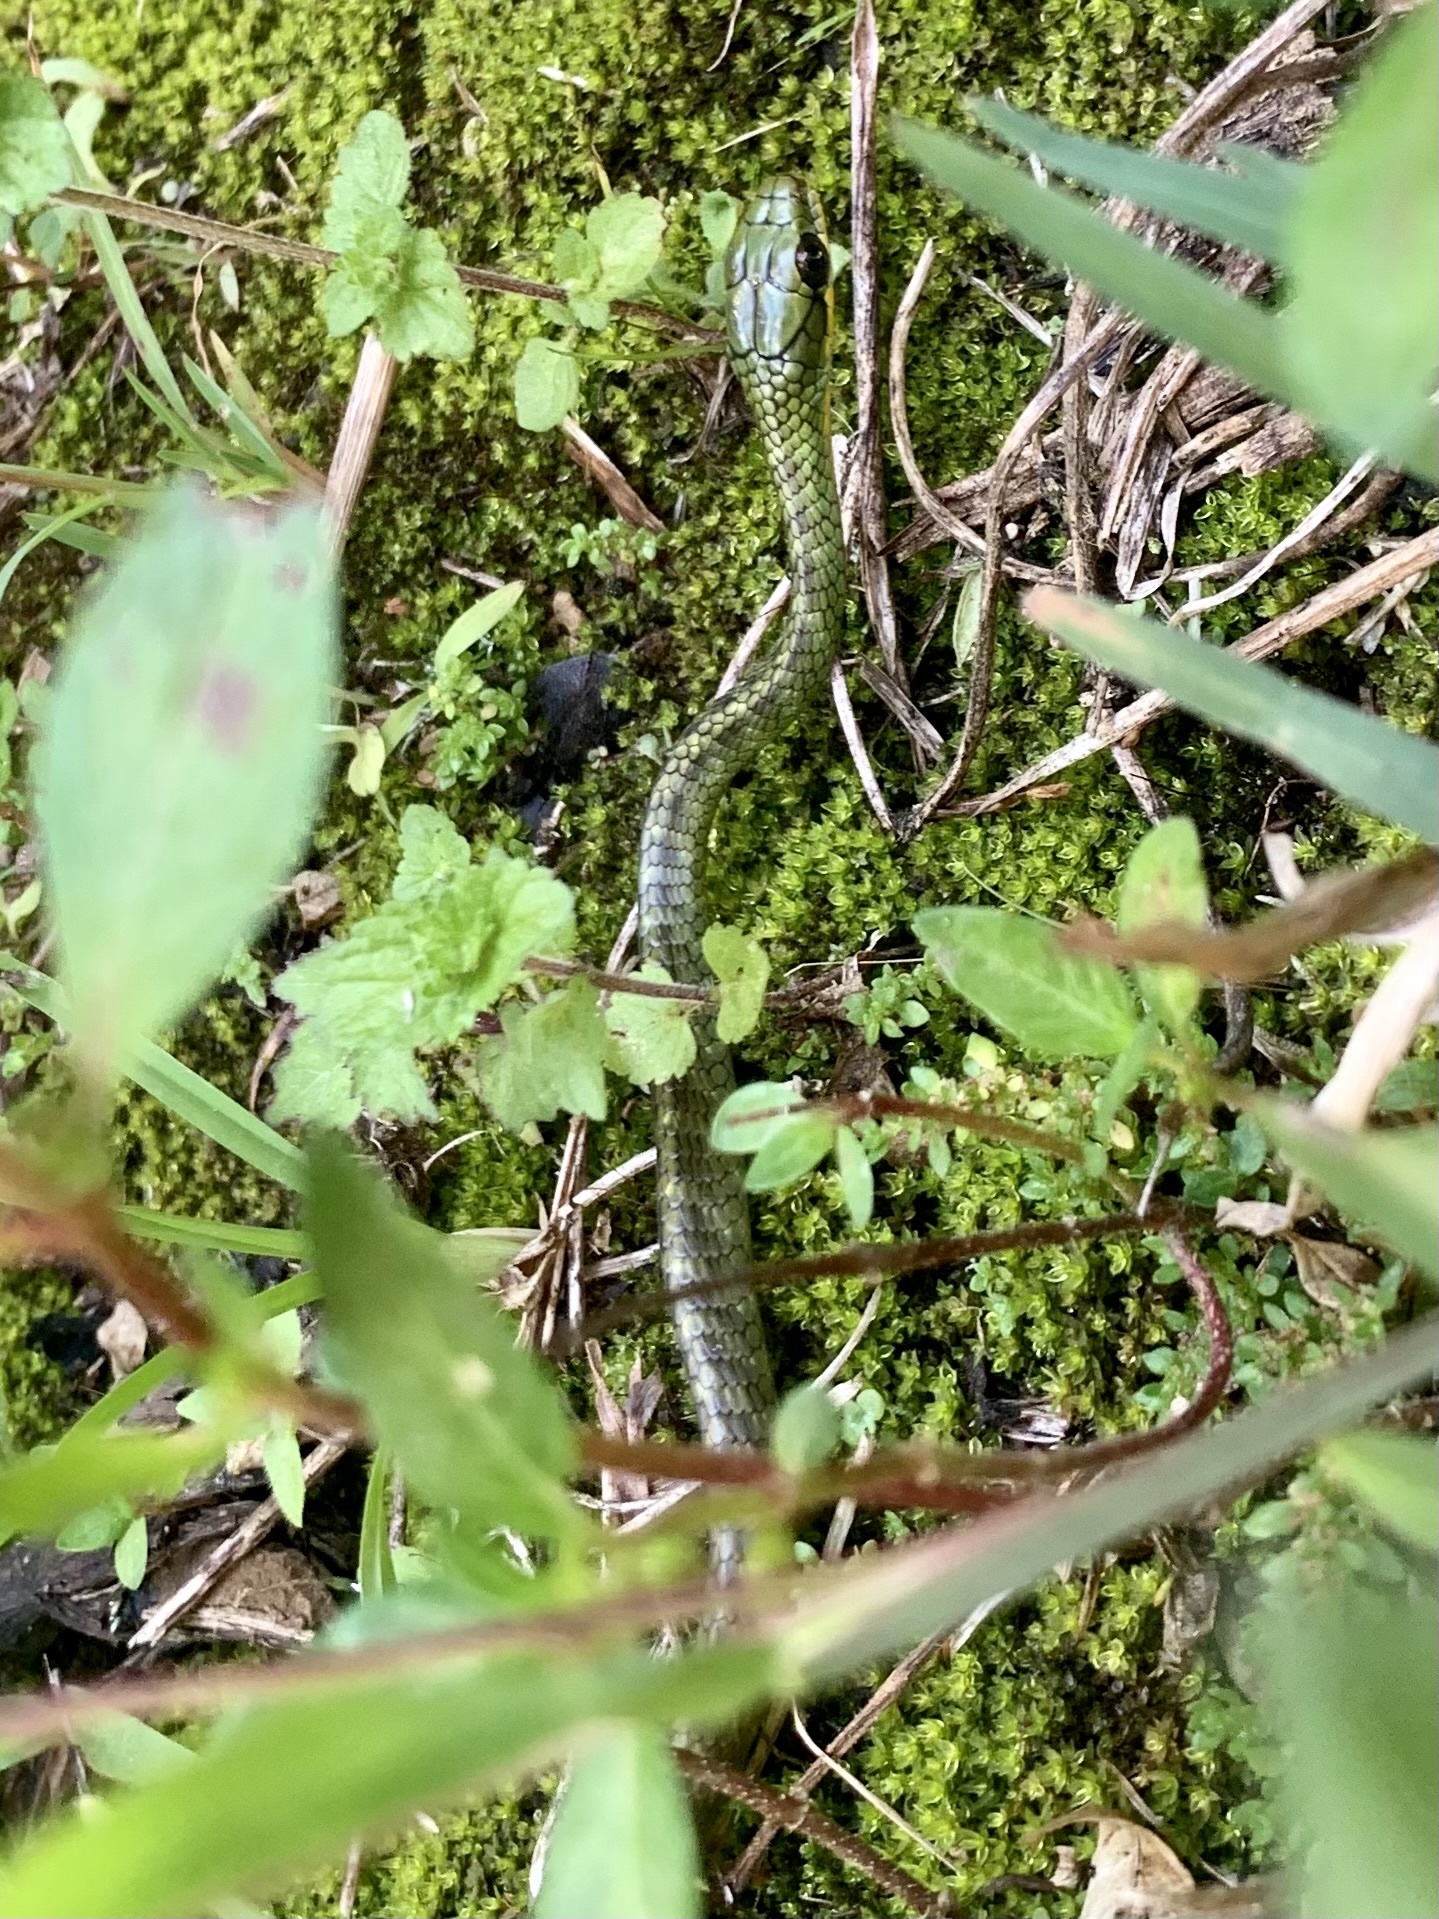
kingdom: Animalia
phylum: Chordata
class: Squamata
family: Colubridae
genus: Chironius
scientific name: Chironius monticola
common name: Mountain sipo
